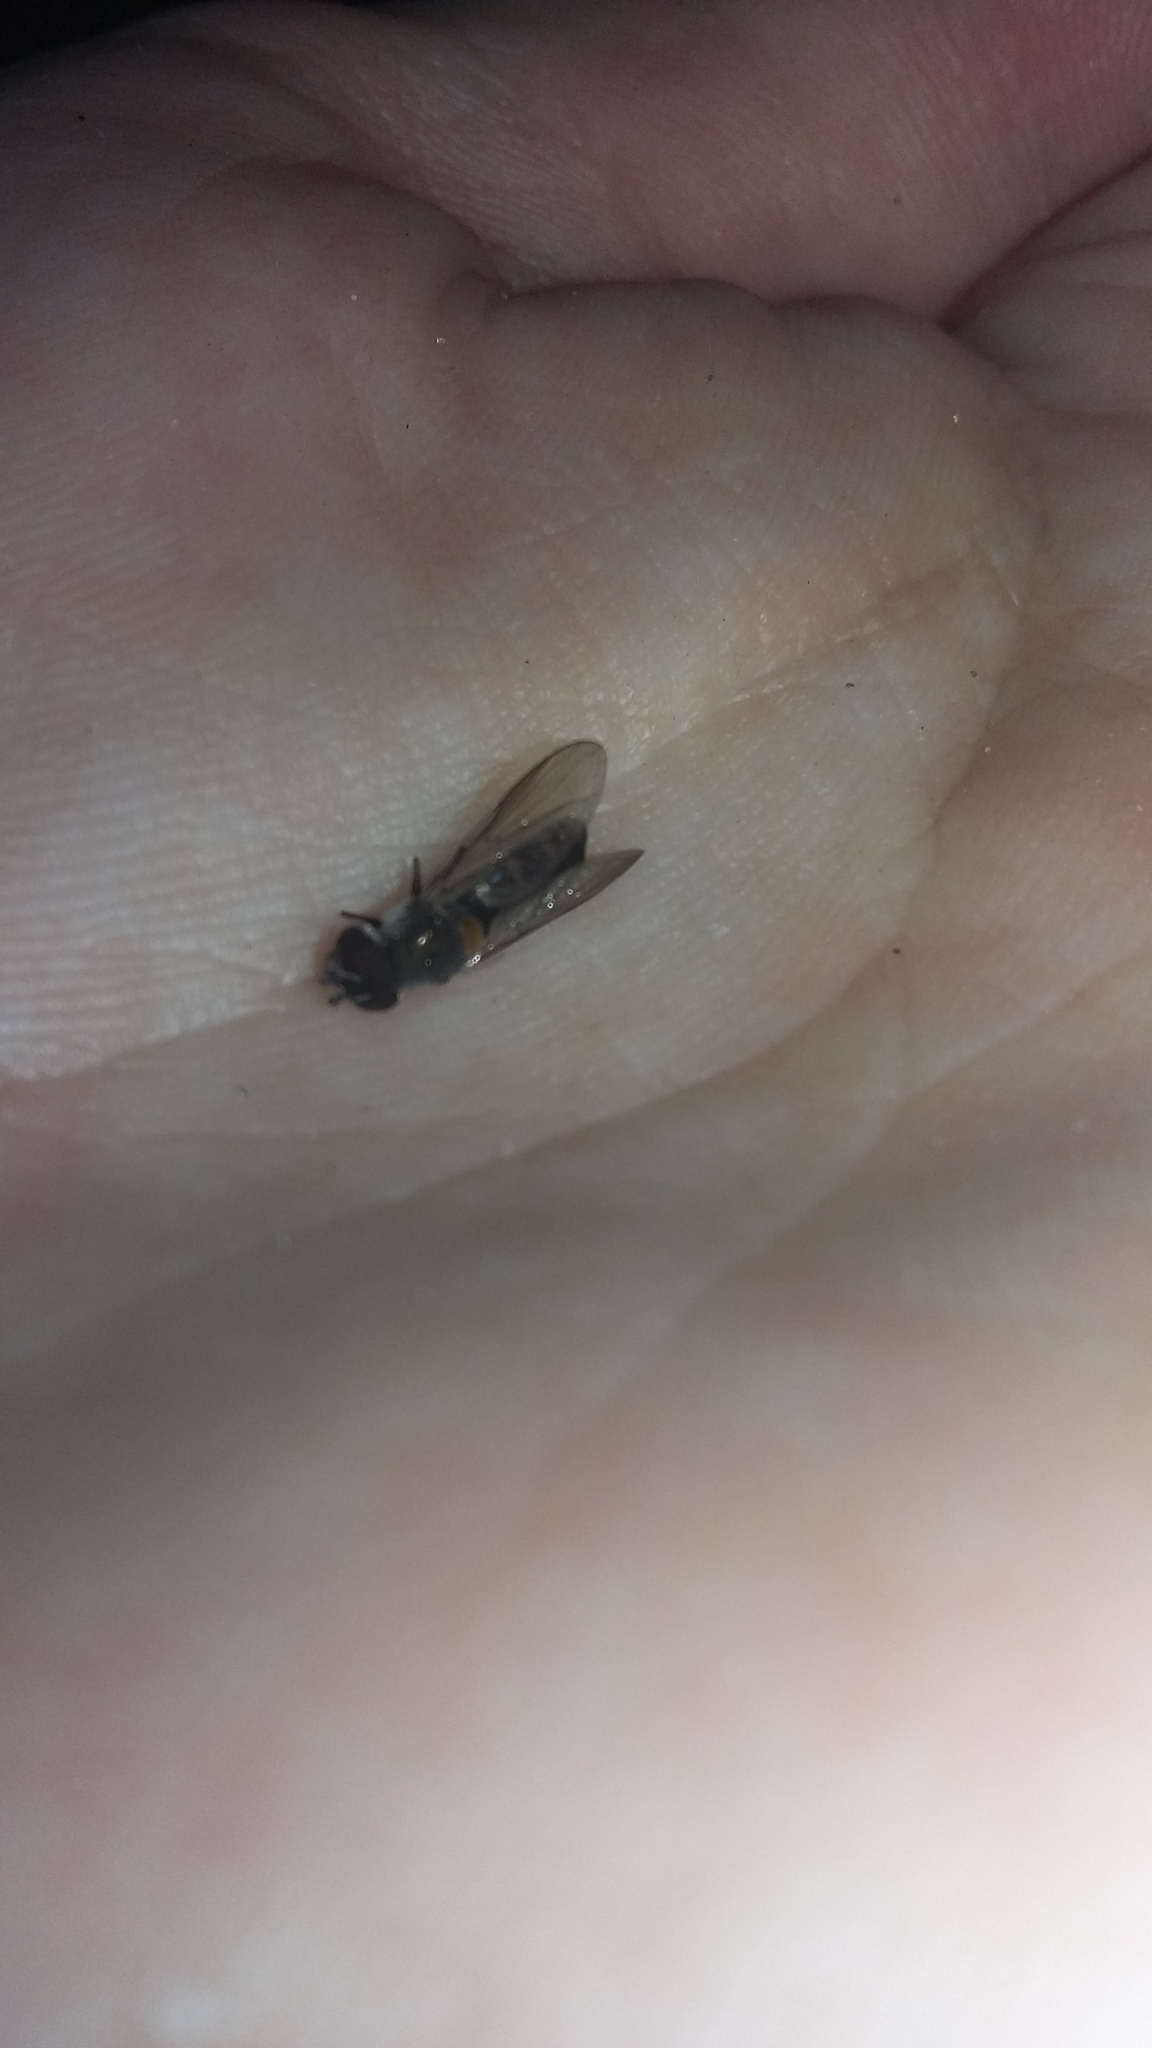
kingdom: Animalia
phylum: Arthropoda
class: Insecta
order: Diptera
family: Syrphidae
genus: Melangyna
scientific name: Melangyna novaezelandiae
